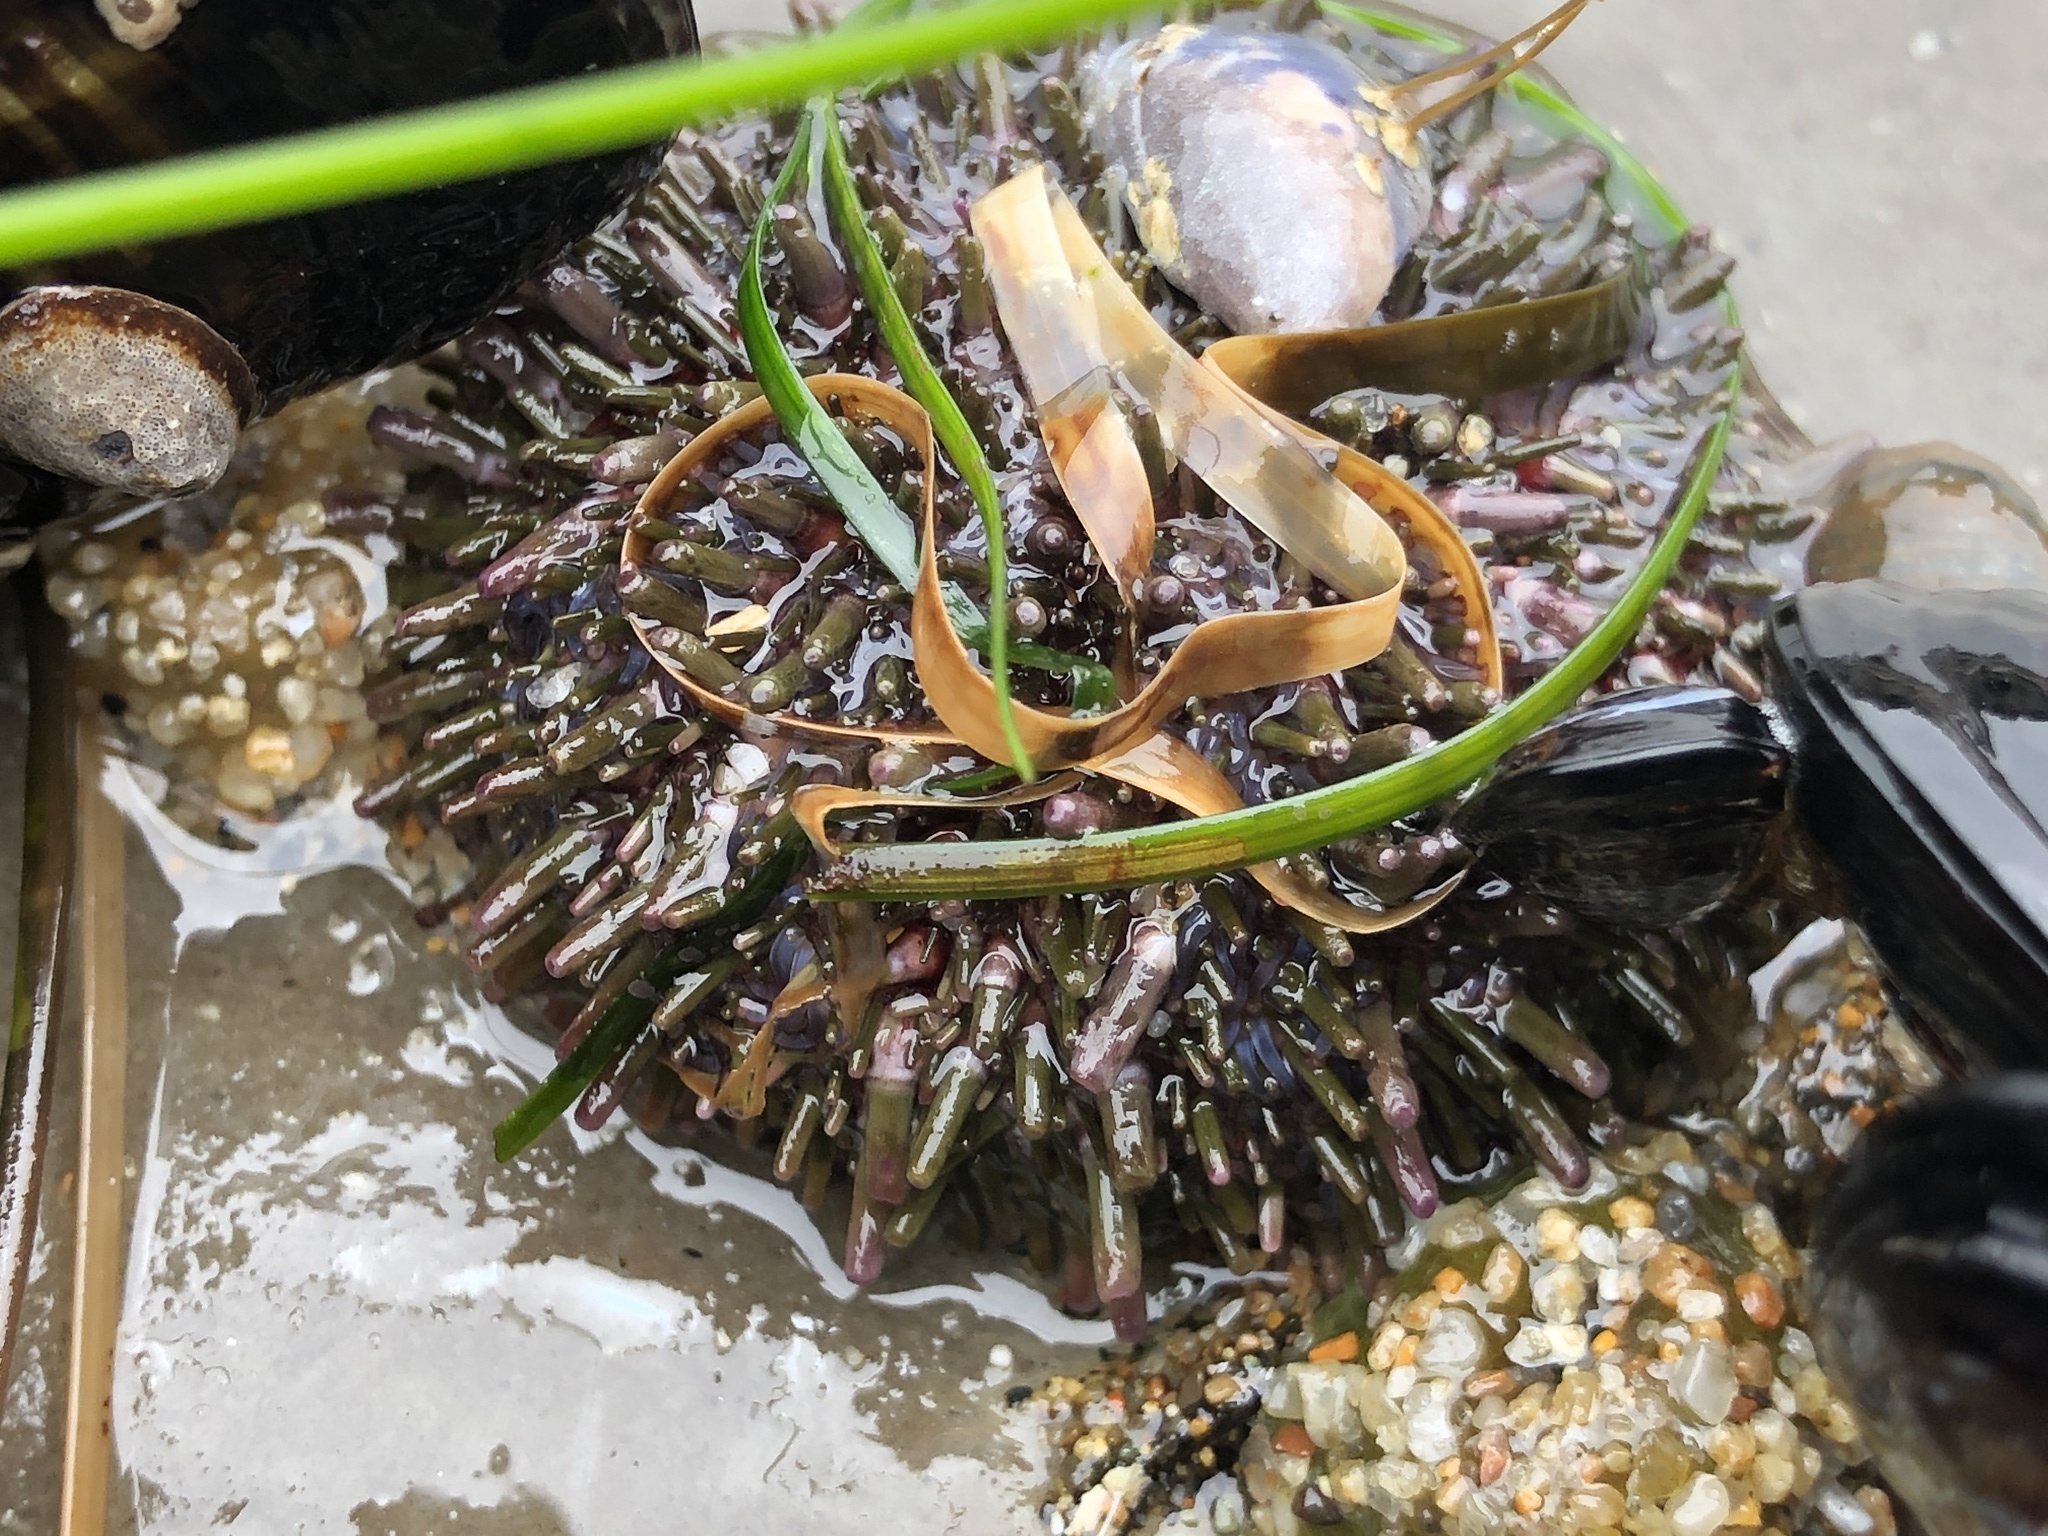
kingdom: Animalia
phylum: Echinodermata
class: Echinoidea
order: Camarodonta
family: Strongylocentrotidae
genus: Strongylocentrotus
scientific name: Strongylocentrotus purpuratus
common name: Purple sea urchin
